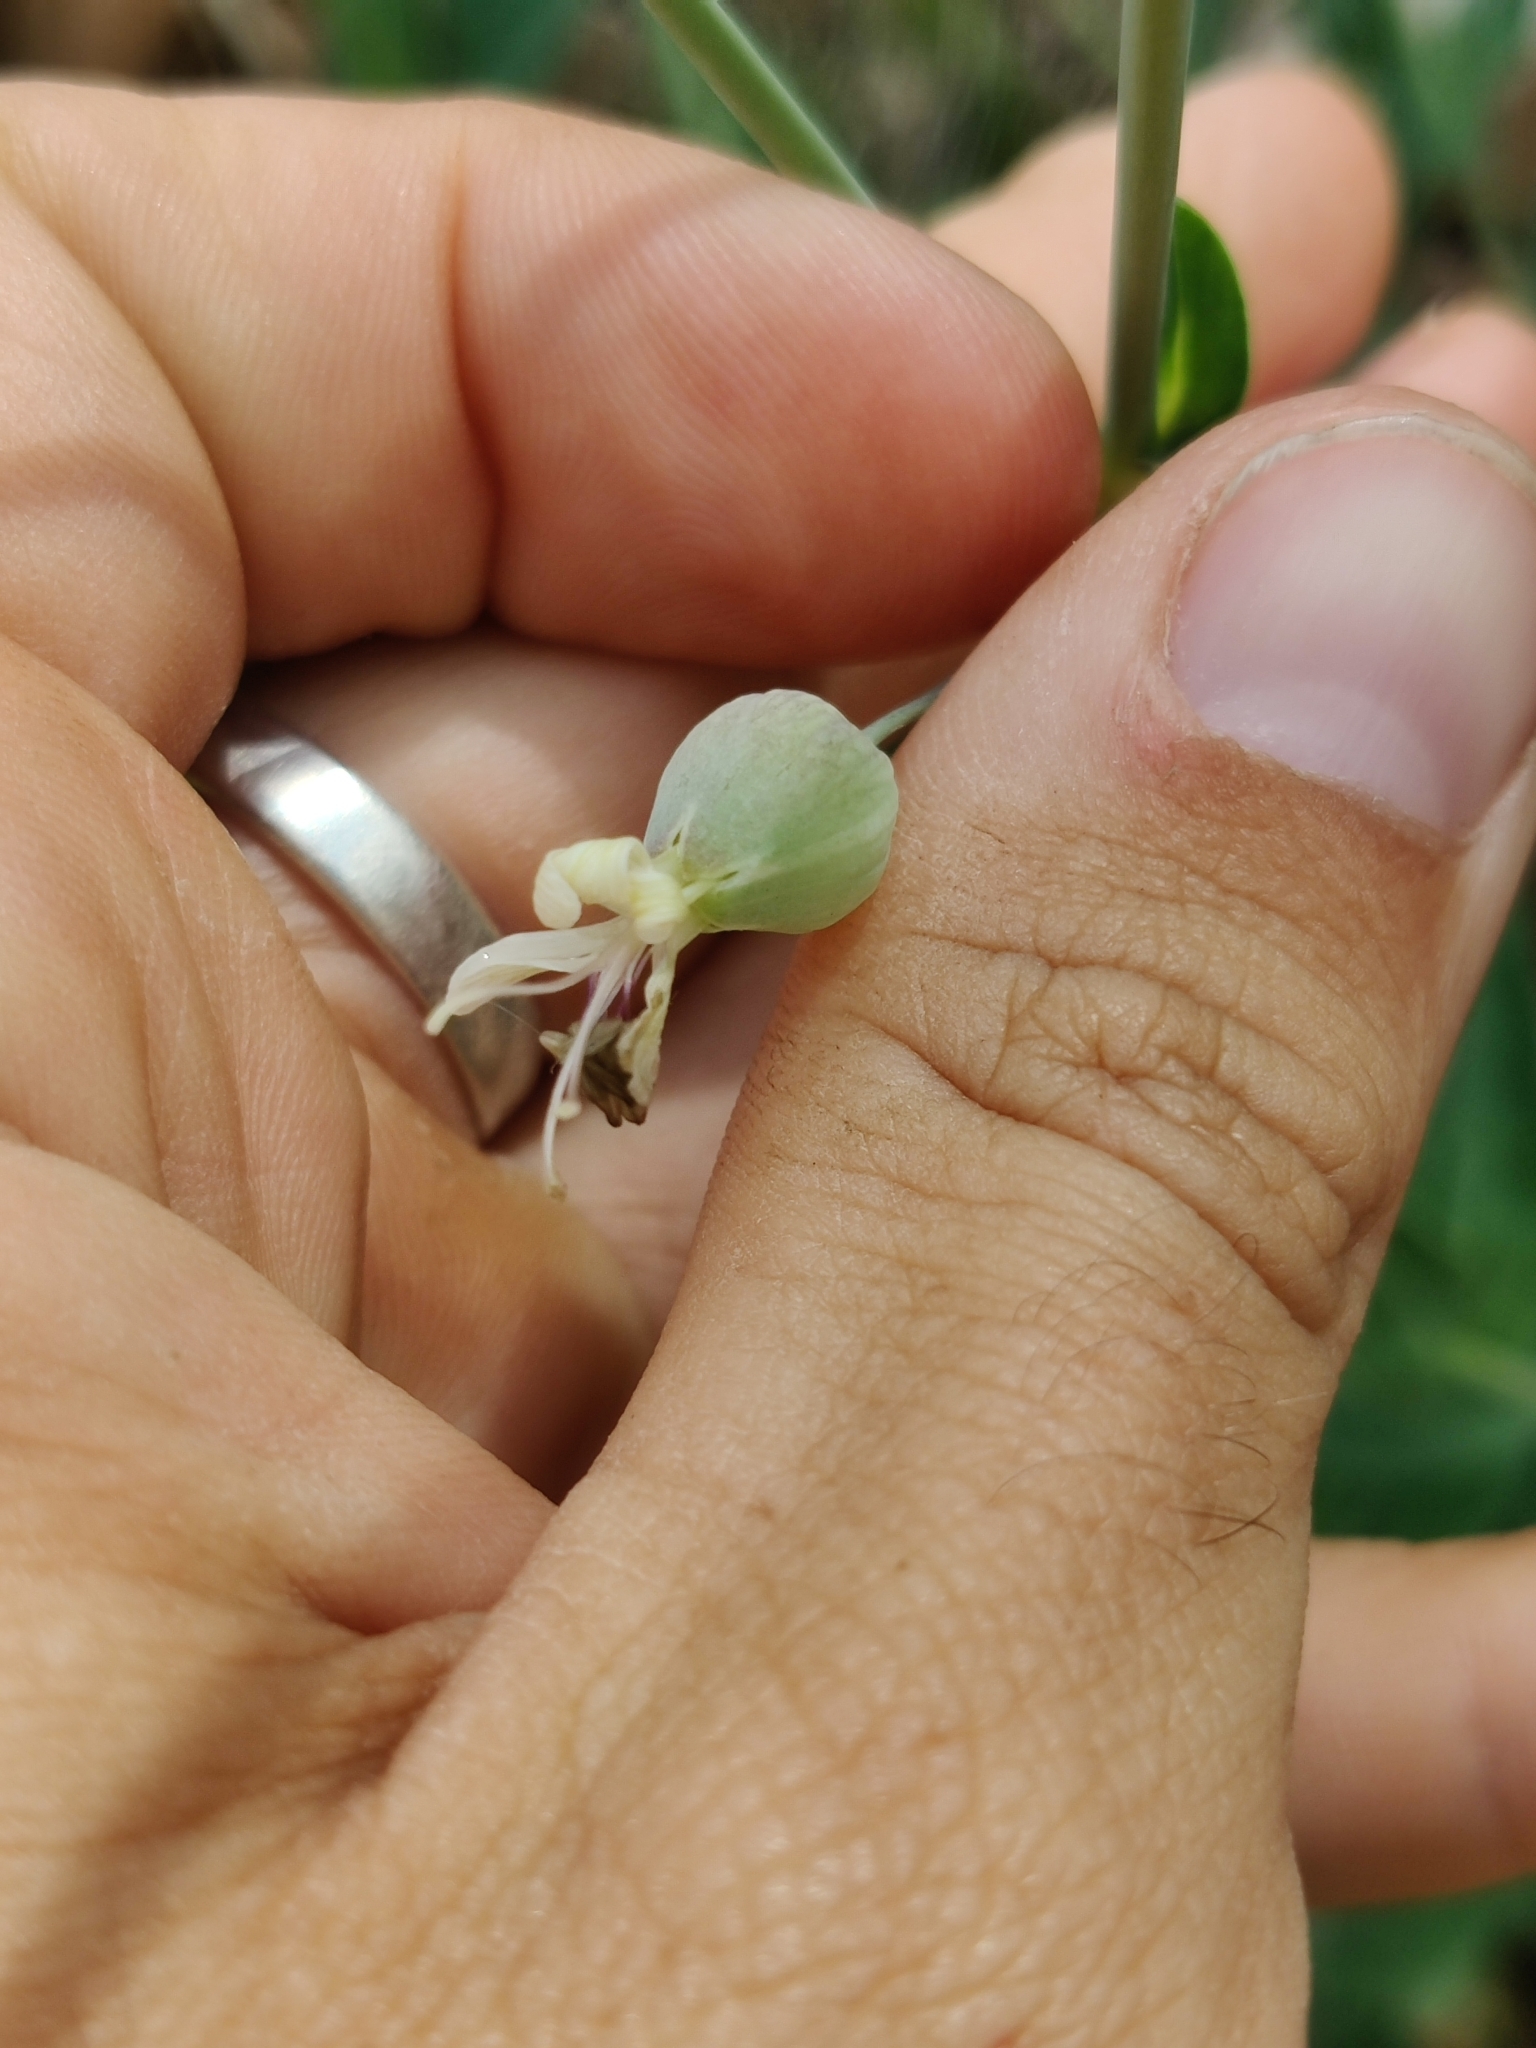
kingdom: Plantae
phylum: Tracheophyta
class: Magnoliopsida
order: Caryophyllales
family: Caryophyllaceae
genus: Silene
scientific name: Silene csereii
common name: Balkan catchfly
